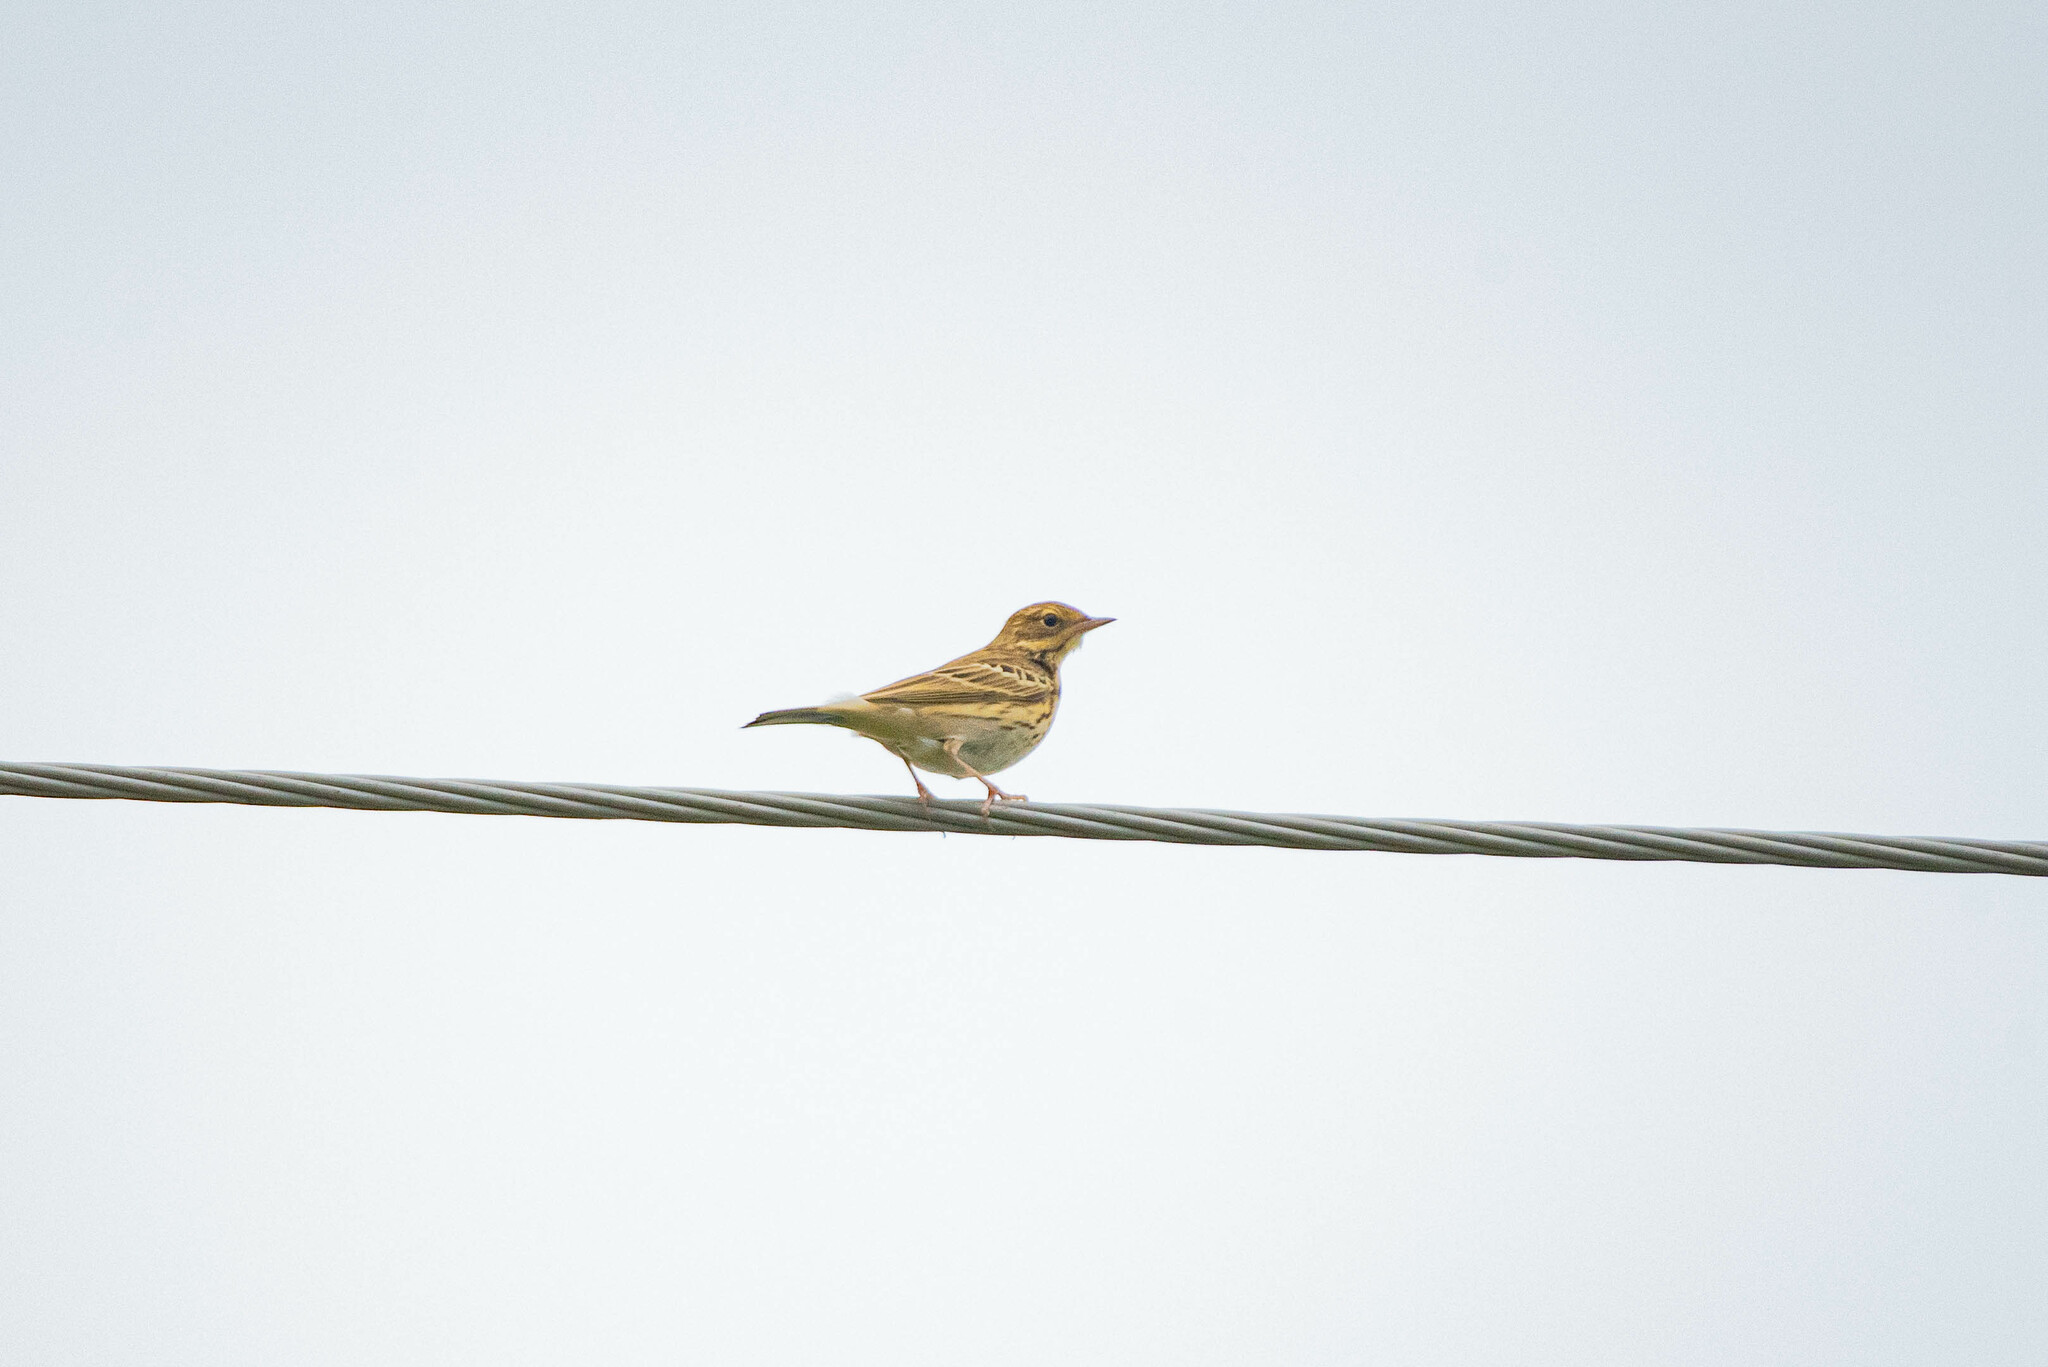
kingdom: Animalia
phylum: Chordata
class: Aves
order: Passeriformes
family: Motacillidae
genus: Anthus
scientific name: Anthus trivialis
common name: Tree pipit
